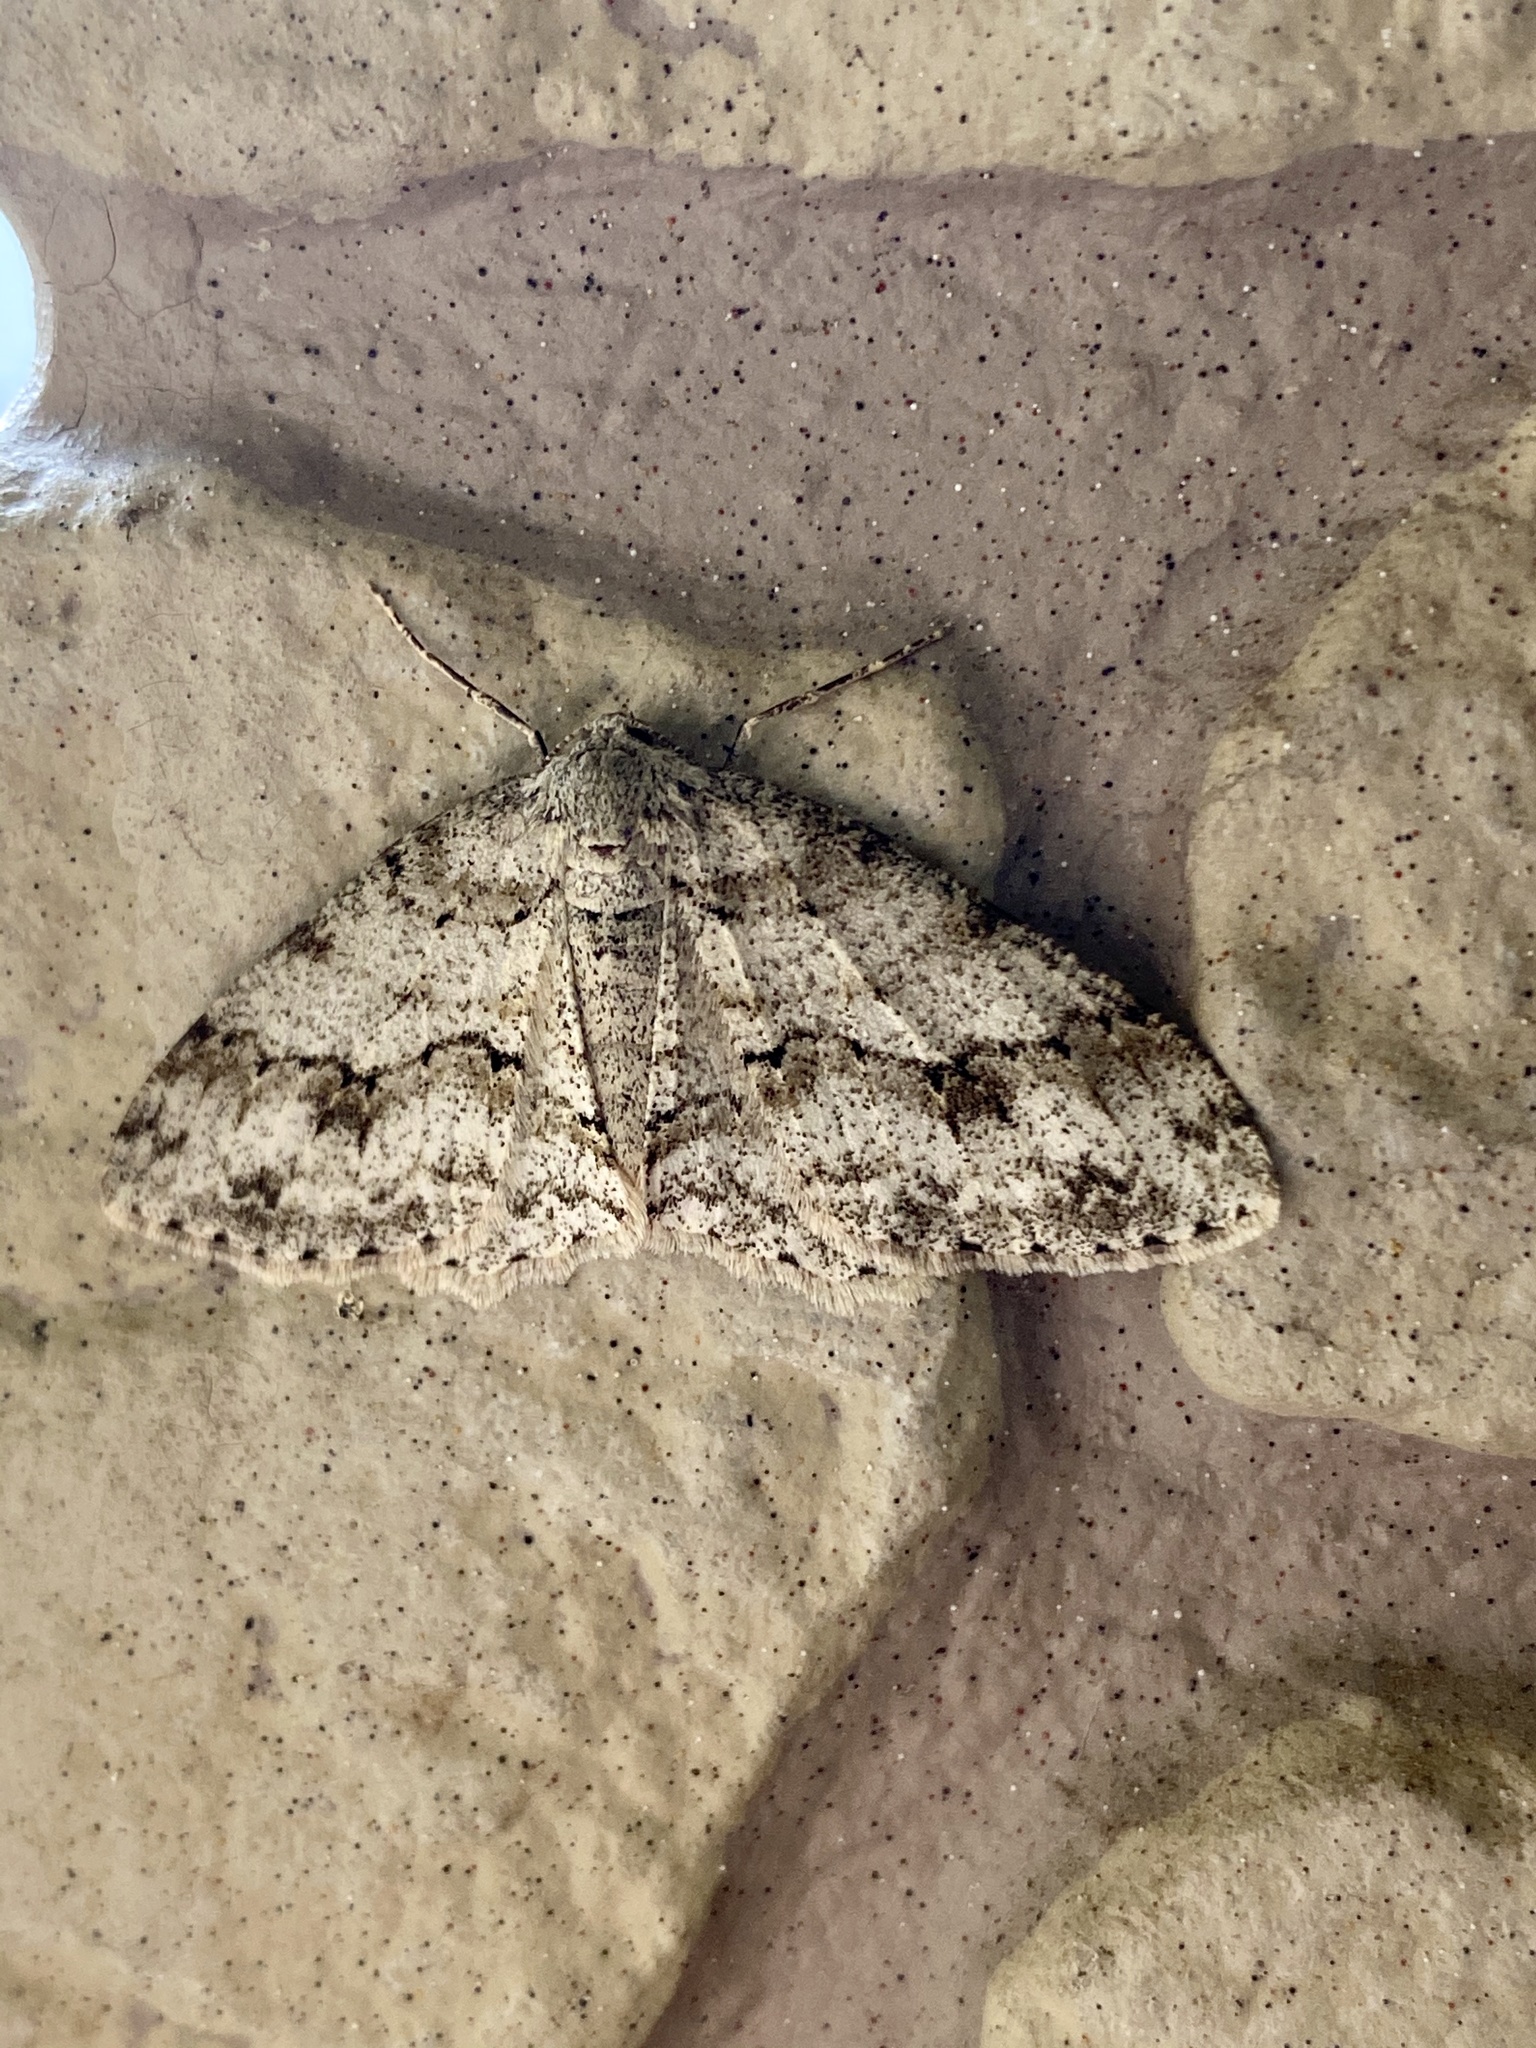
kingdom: Animalia
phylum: Arthropoda
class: Insecta
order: Lepidoptera
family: Geometridae
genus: Ectropis
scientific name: Ectropis crepuscularia
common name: Engrailed
